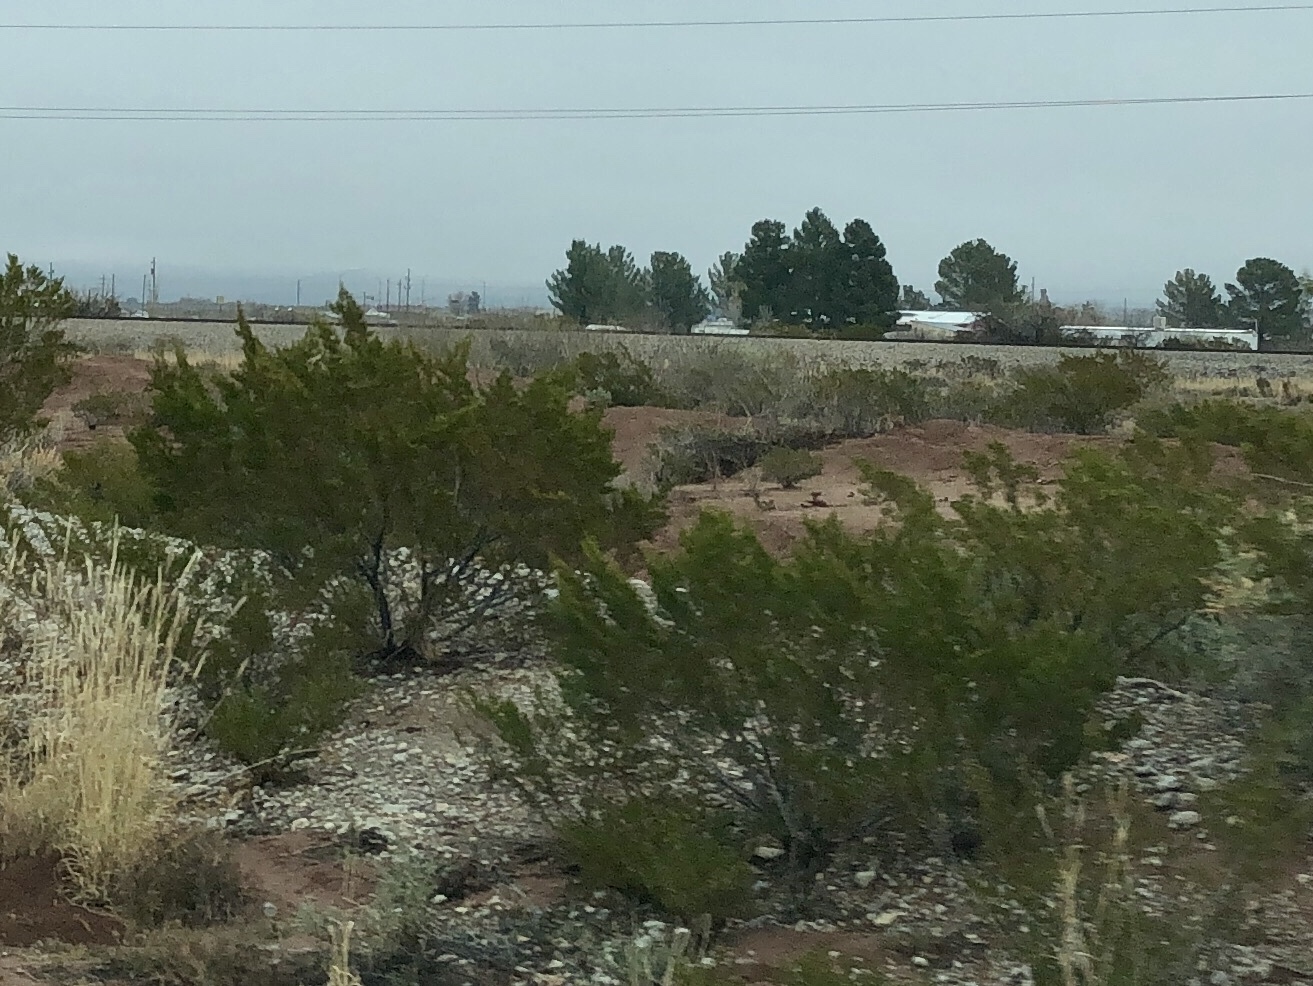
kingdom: Plantae
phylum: Tracheophyta
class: Magnoliopsida
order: Zygophyllales
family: Zygophyllaceae
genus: Larrea
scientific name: Larrea tridentata
